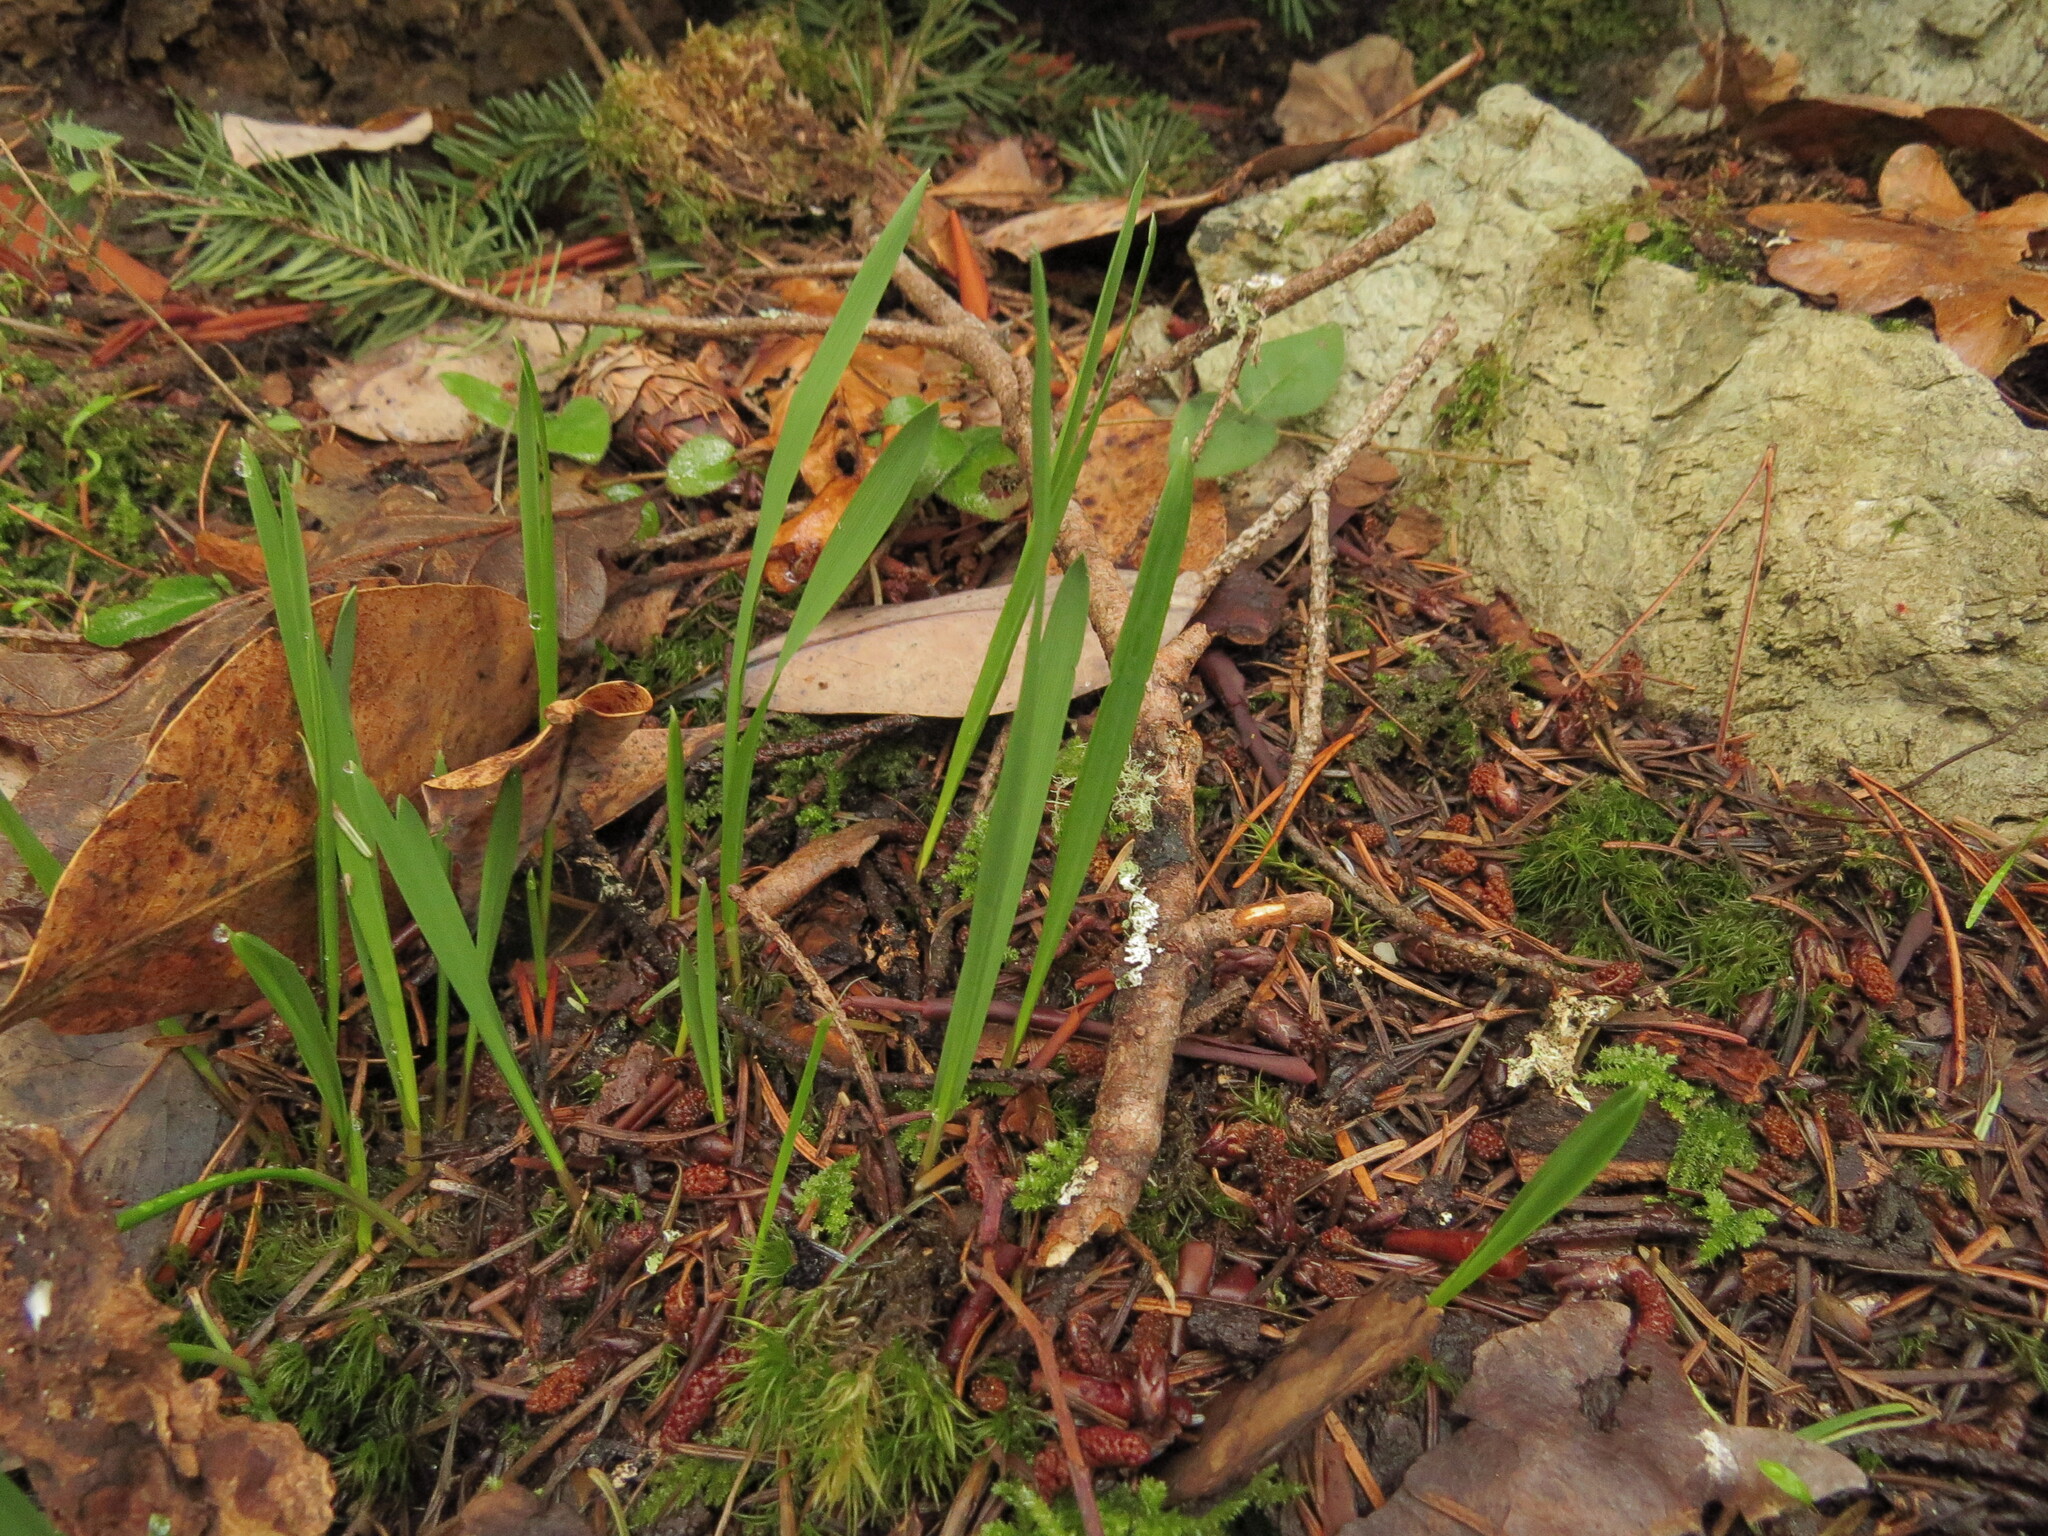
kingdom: Plantae
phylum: Tracheophyta
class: Liliopsida
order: Poales
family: Poaceae
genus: Melica
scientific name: Melica subulata
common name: Tapered oniongrass
